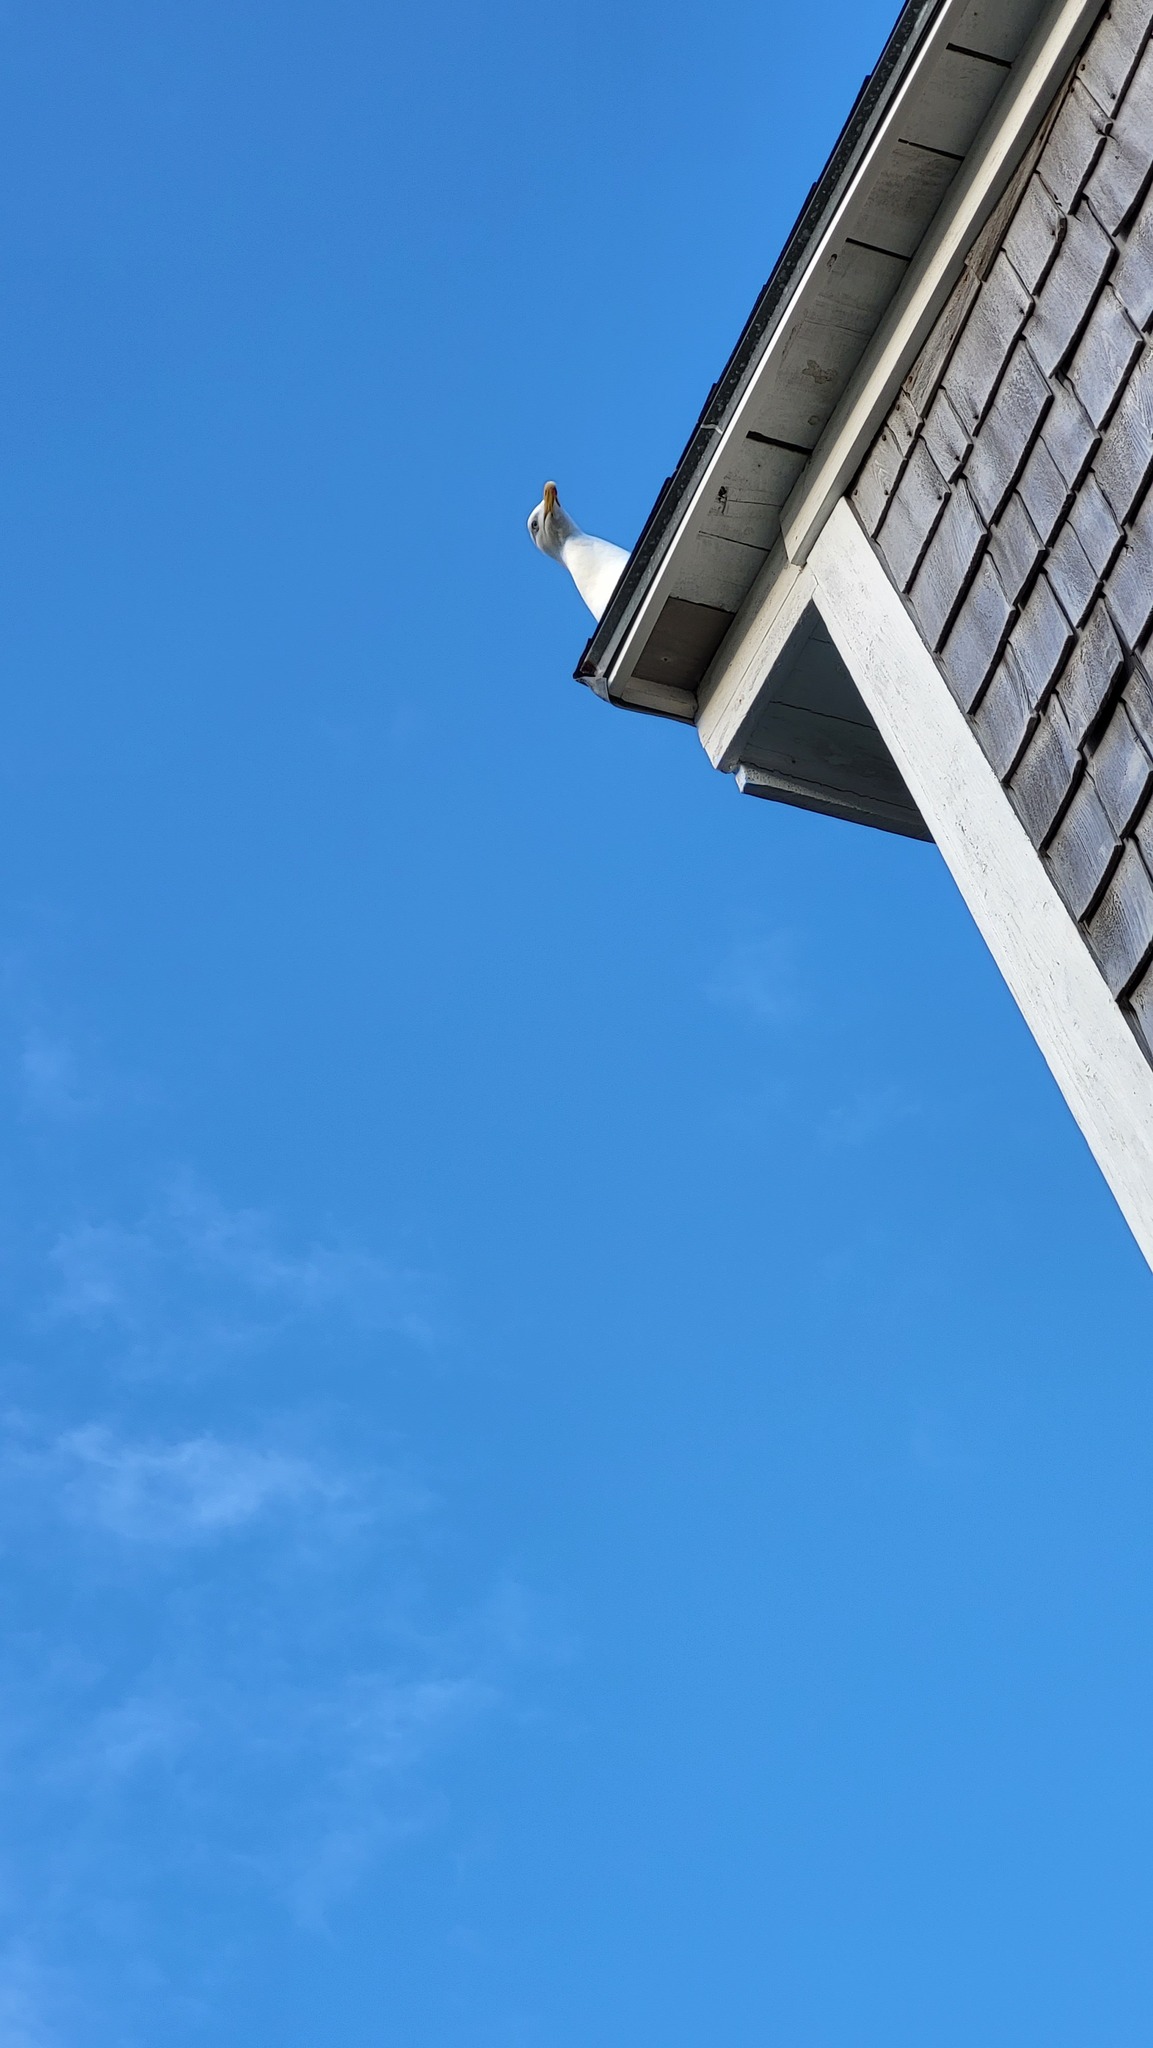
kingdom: Animalia
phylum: Chordata
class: Aves
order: Charadriiformes
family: Laridae
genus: Larus
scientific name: Larus argentatus
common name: Herring gull
